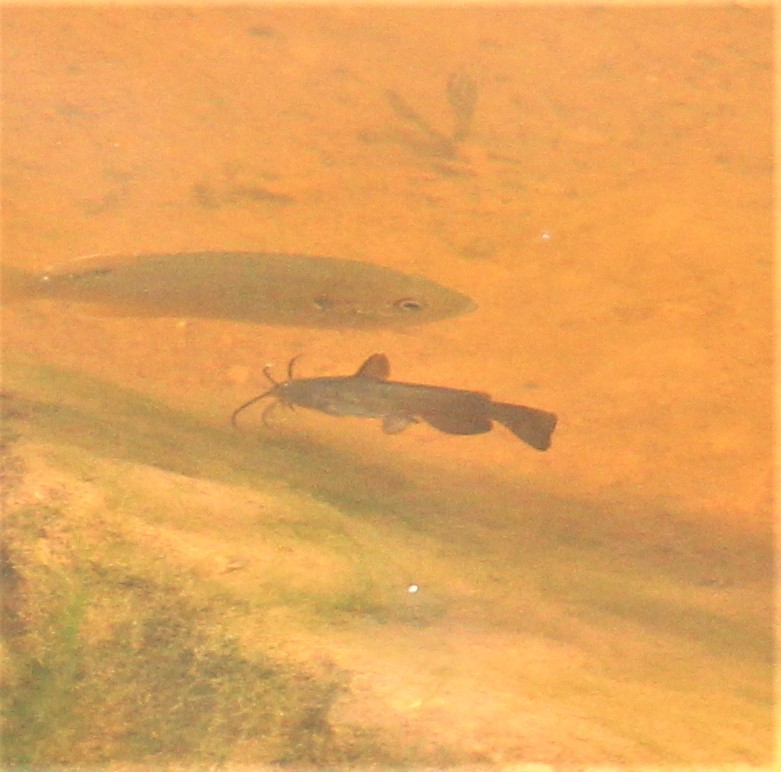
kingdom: Animalia
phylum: Chordata
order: Siluriformes
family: Ictaluridae
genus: Ameiurus
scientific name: Ameiurus nebulosus
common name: Brown bullhead
